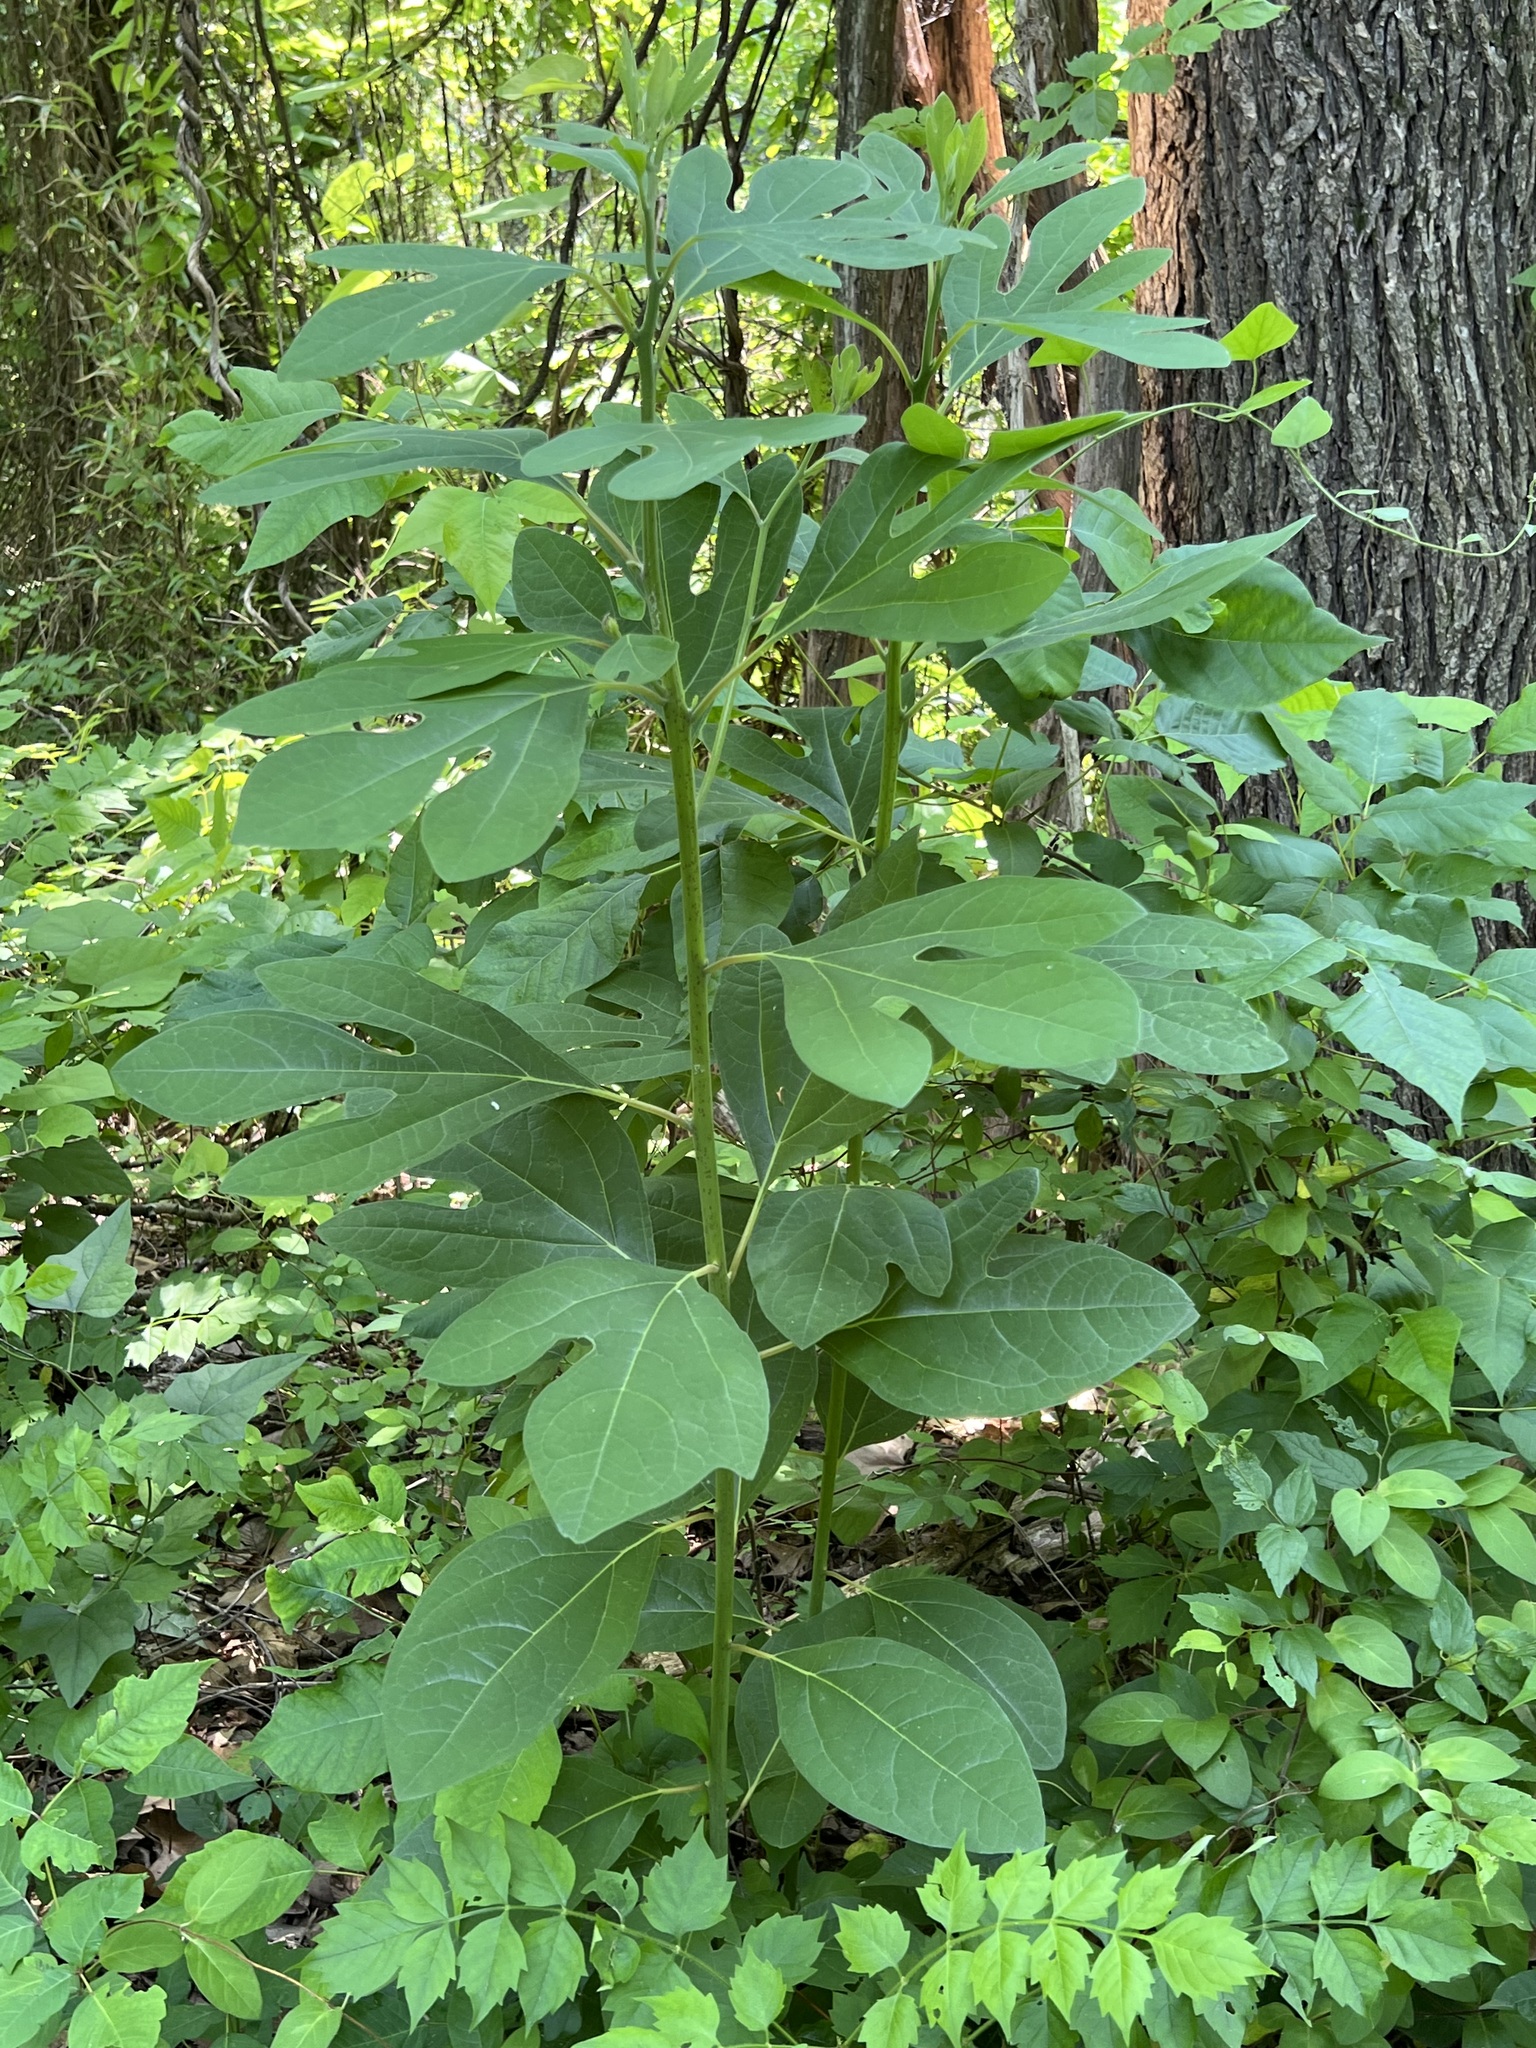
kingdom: Plantae
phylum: Tracheophyta
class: Magnoliopsida
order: Laurales
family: Lauraceae
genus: Sassafras
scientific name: Sassafras albidum
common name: Sassafras
